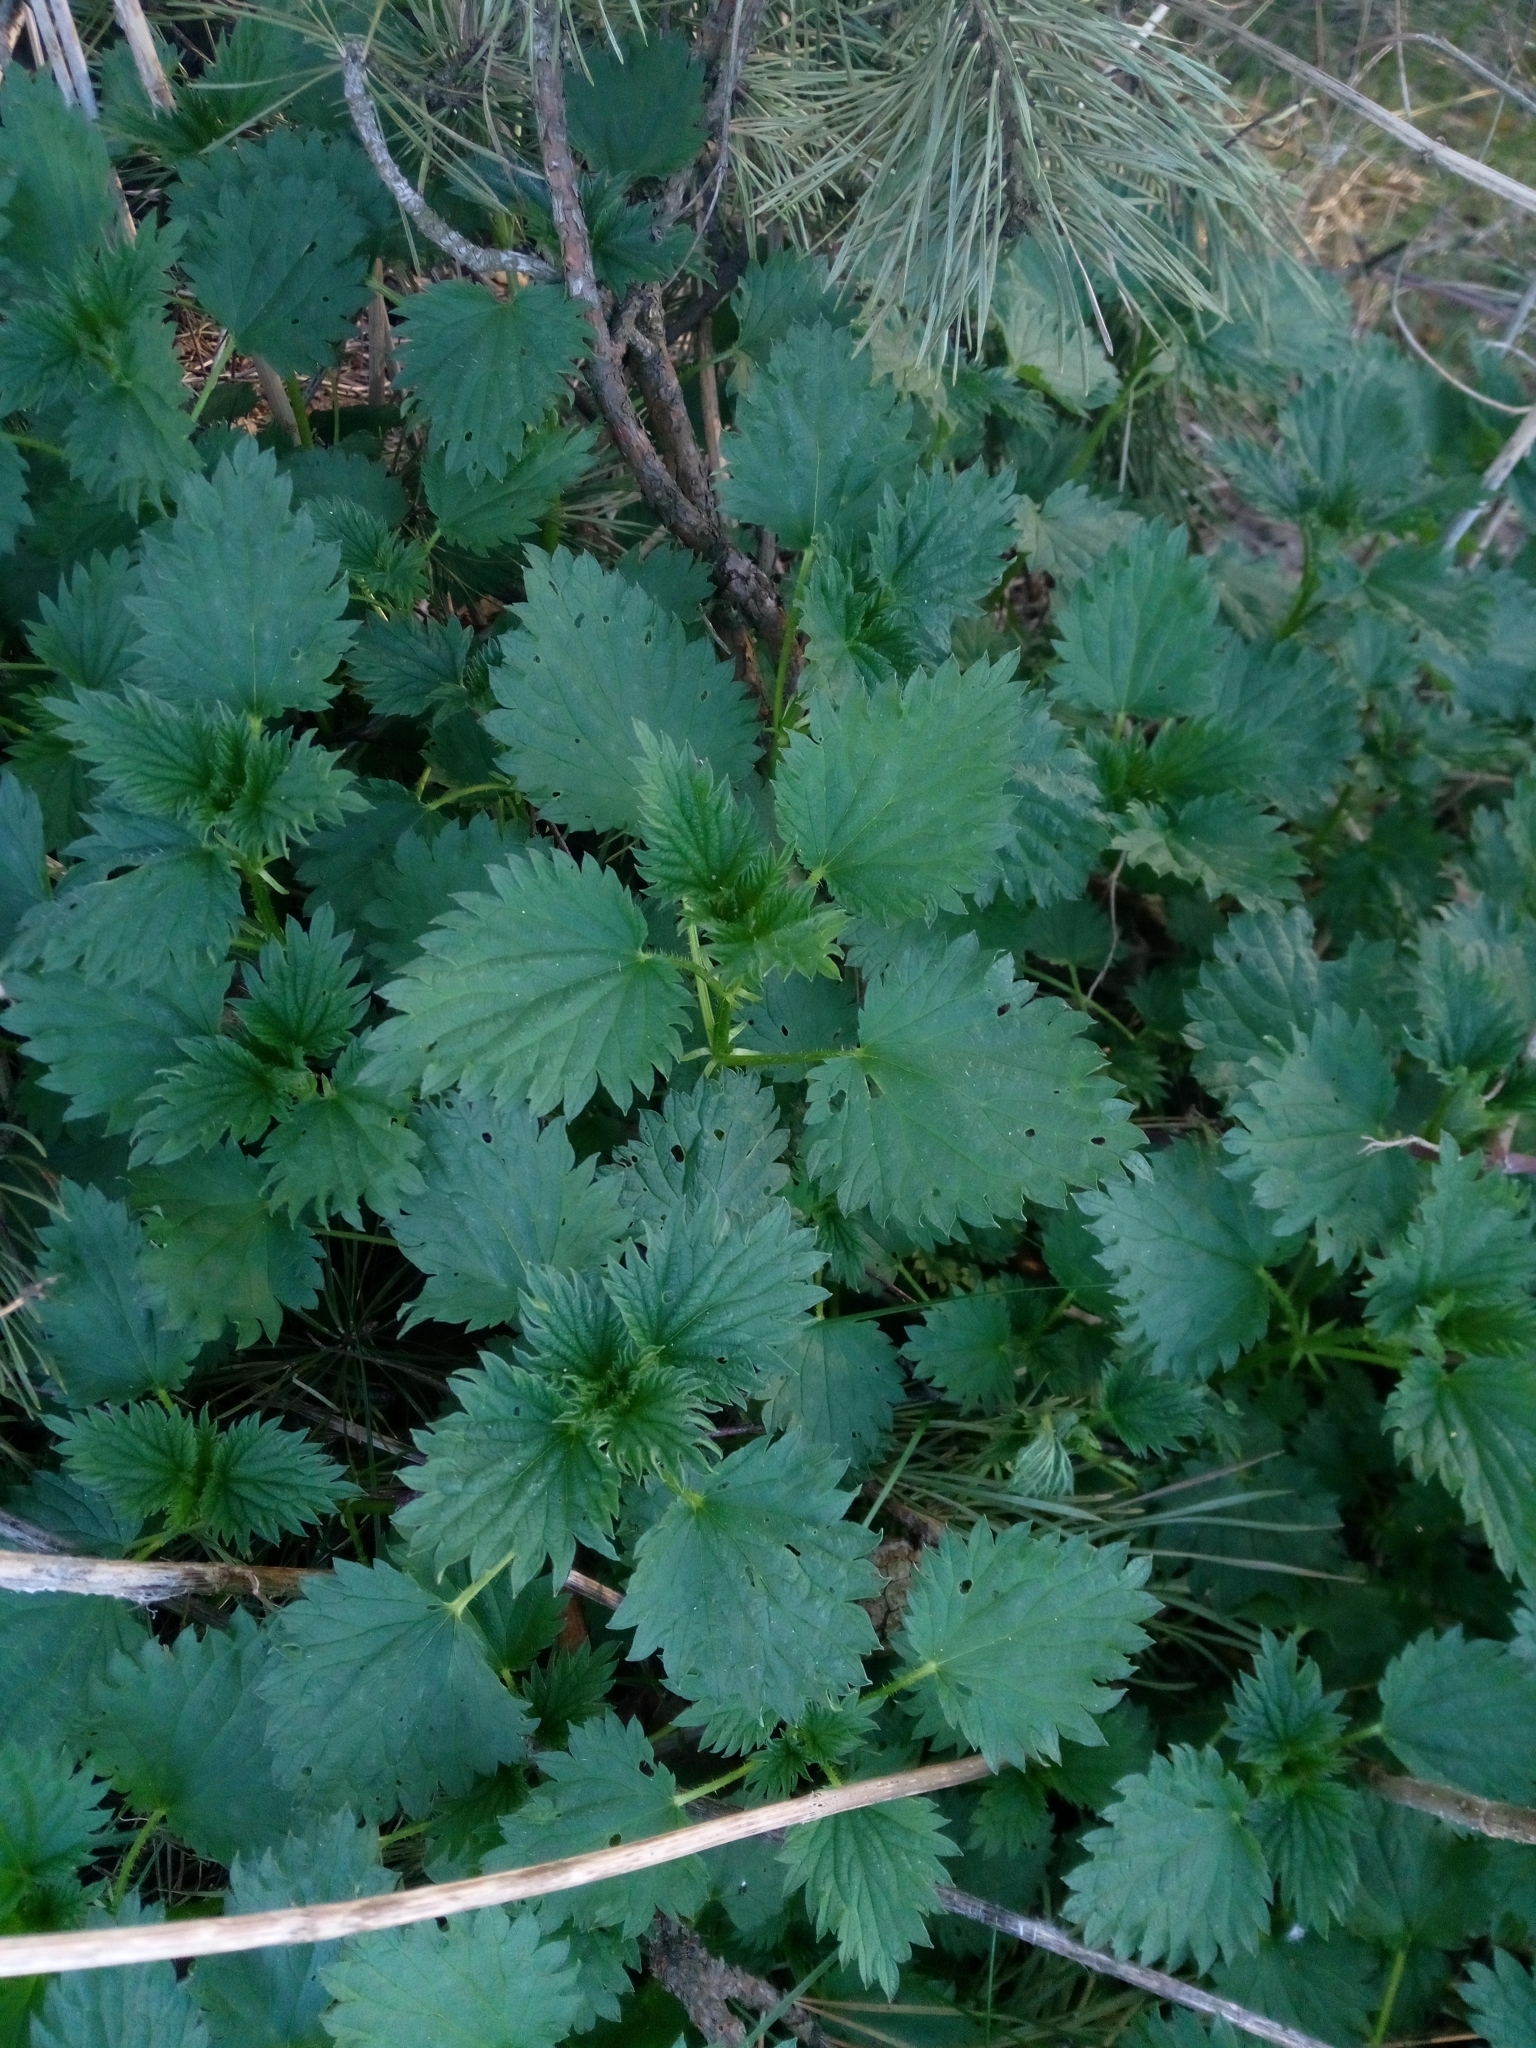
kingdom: Plantae
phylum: Tracheophyta
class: Magnoliopsida
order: Rosales
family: Urticaceae
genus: Urtica
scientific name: Urtica dioica
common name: Common nettle
